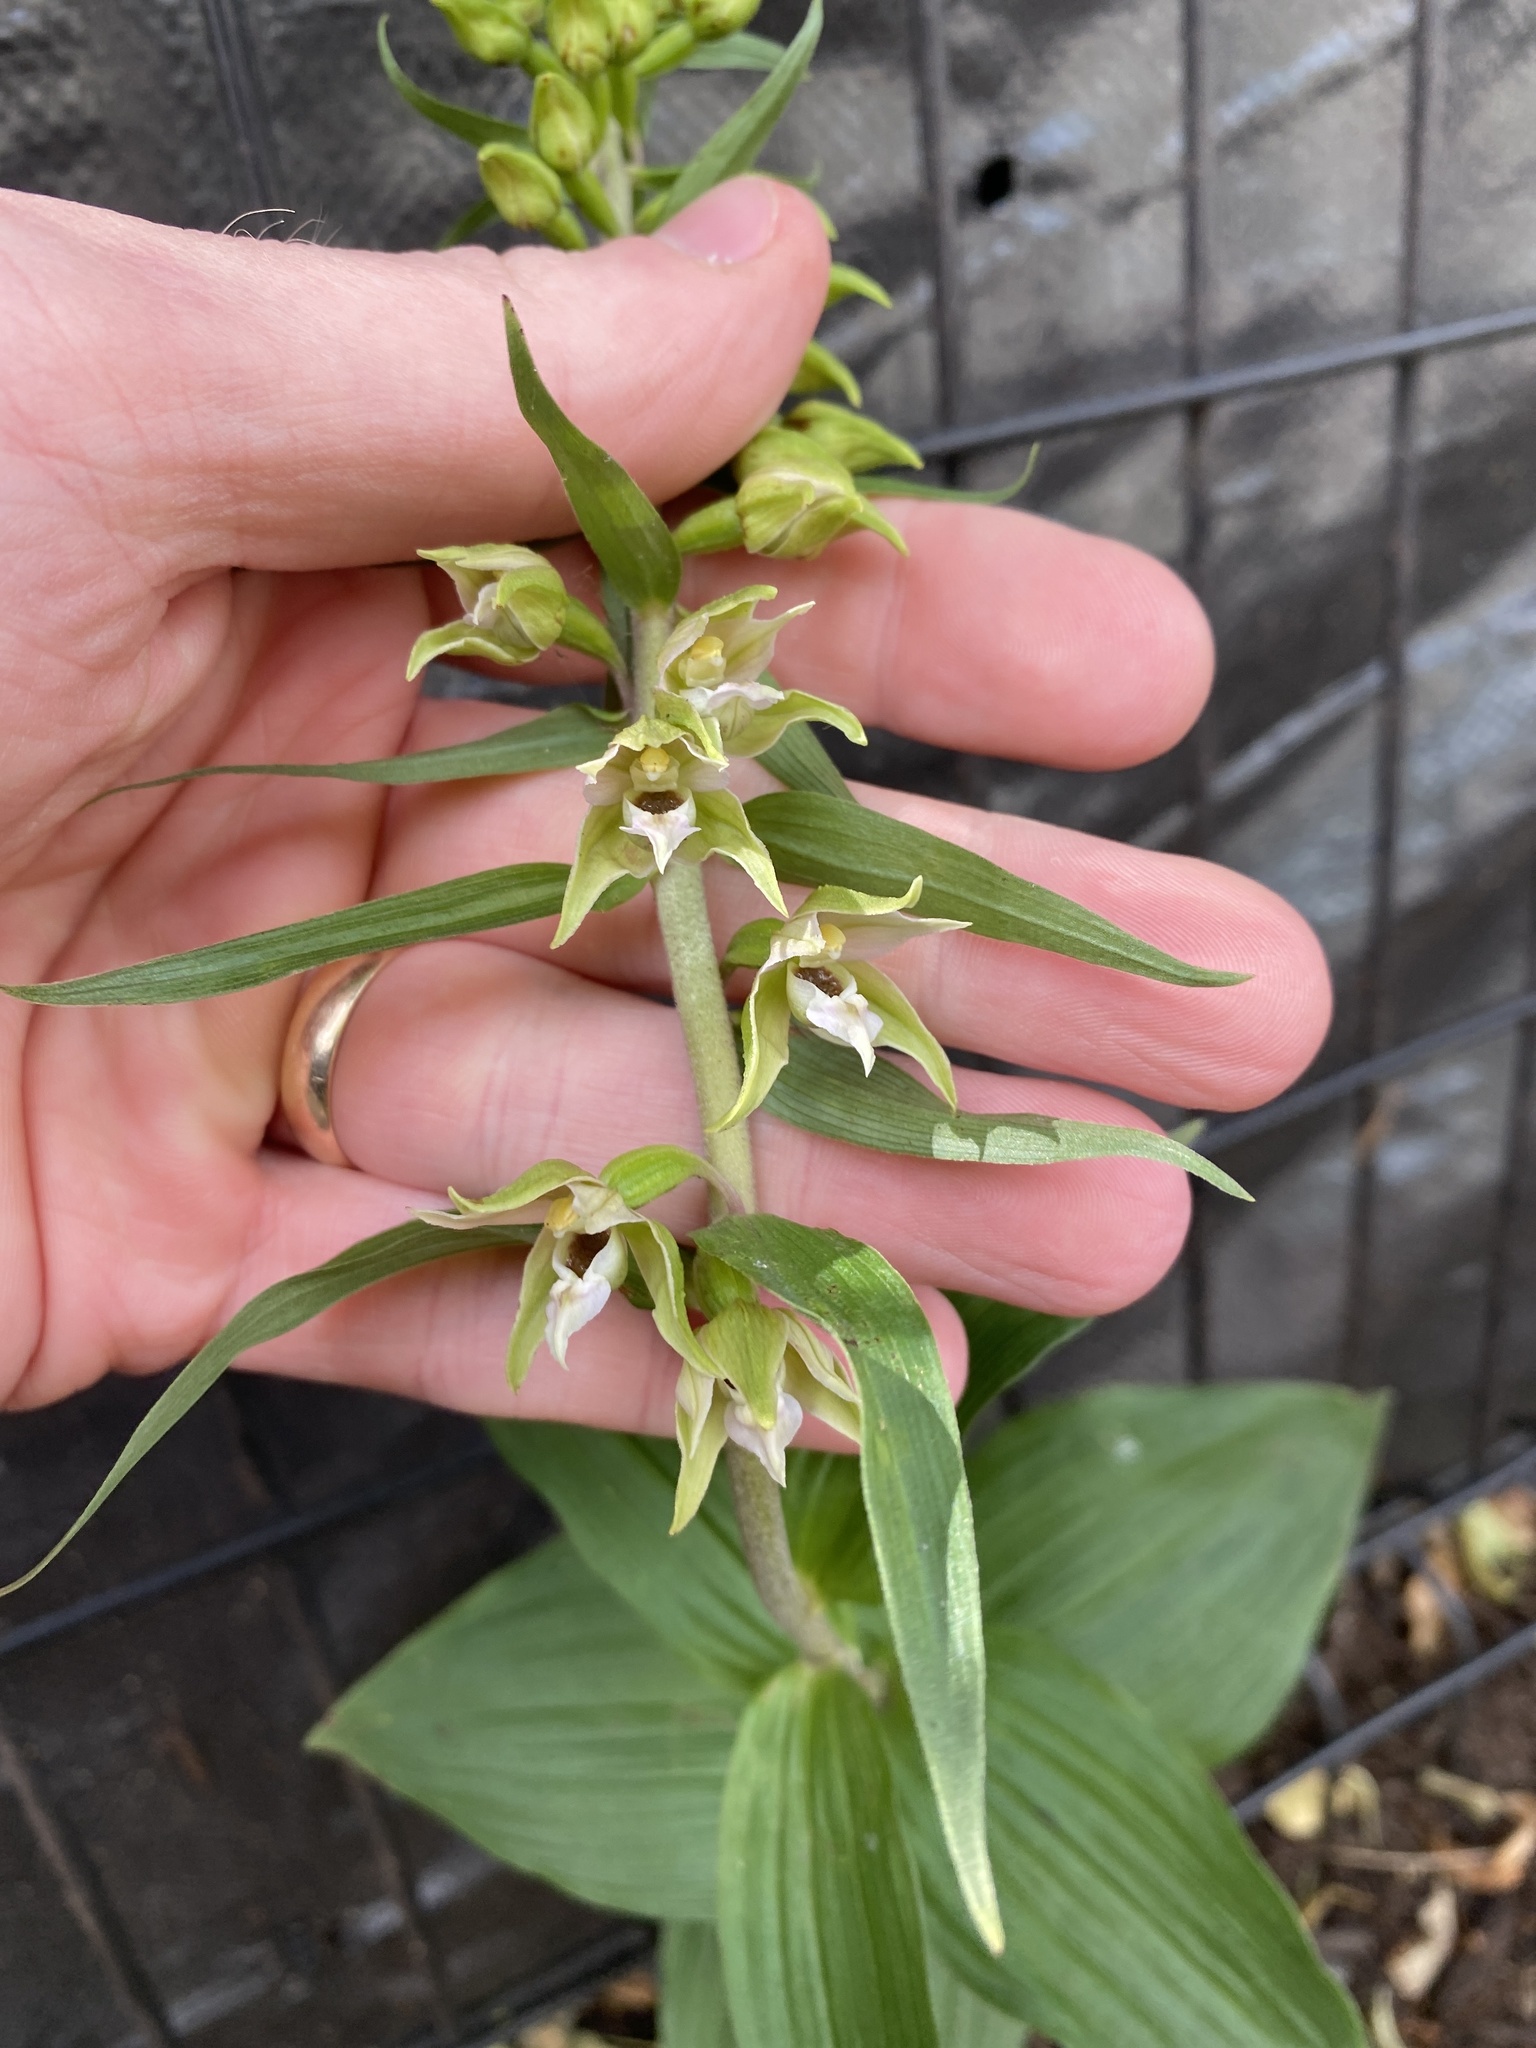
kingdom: Plantae
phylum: Tracheophyta
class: Liliopsida
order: Asparagales
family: Orchidaceae
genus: Epipactis
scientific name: Epipactis helleborine
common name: Broad-leaved helleborine
